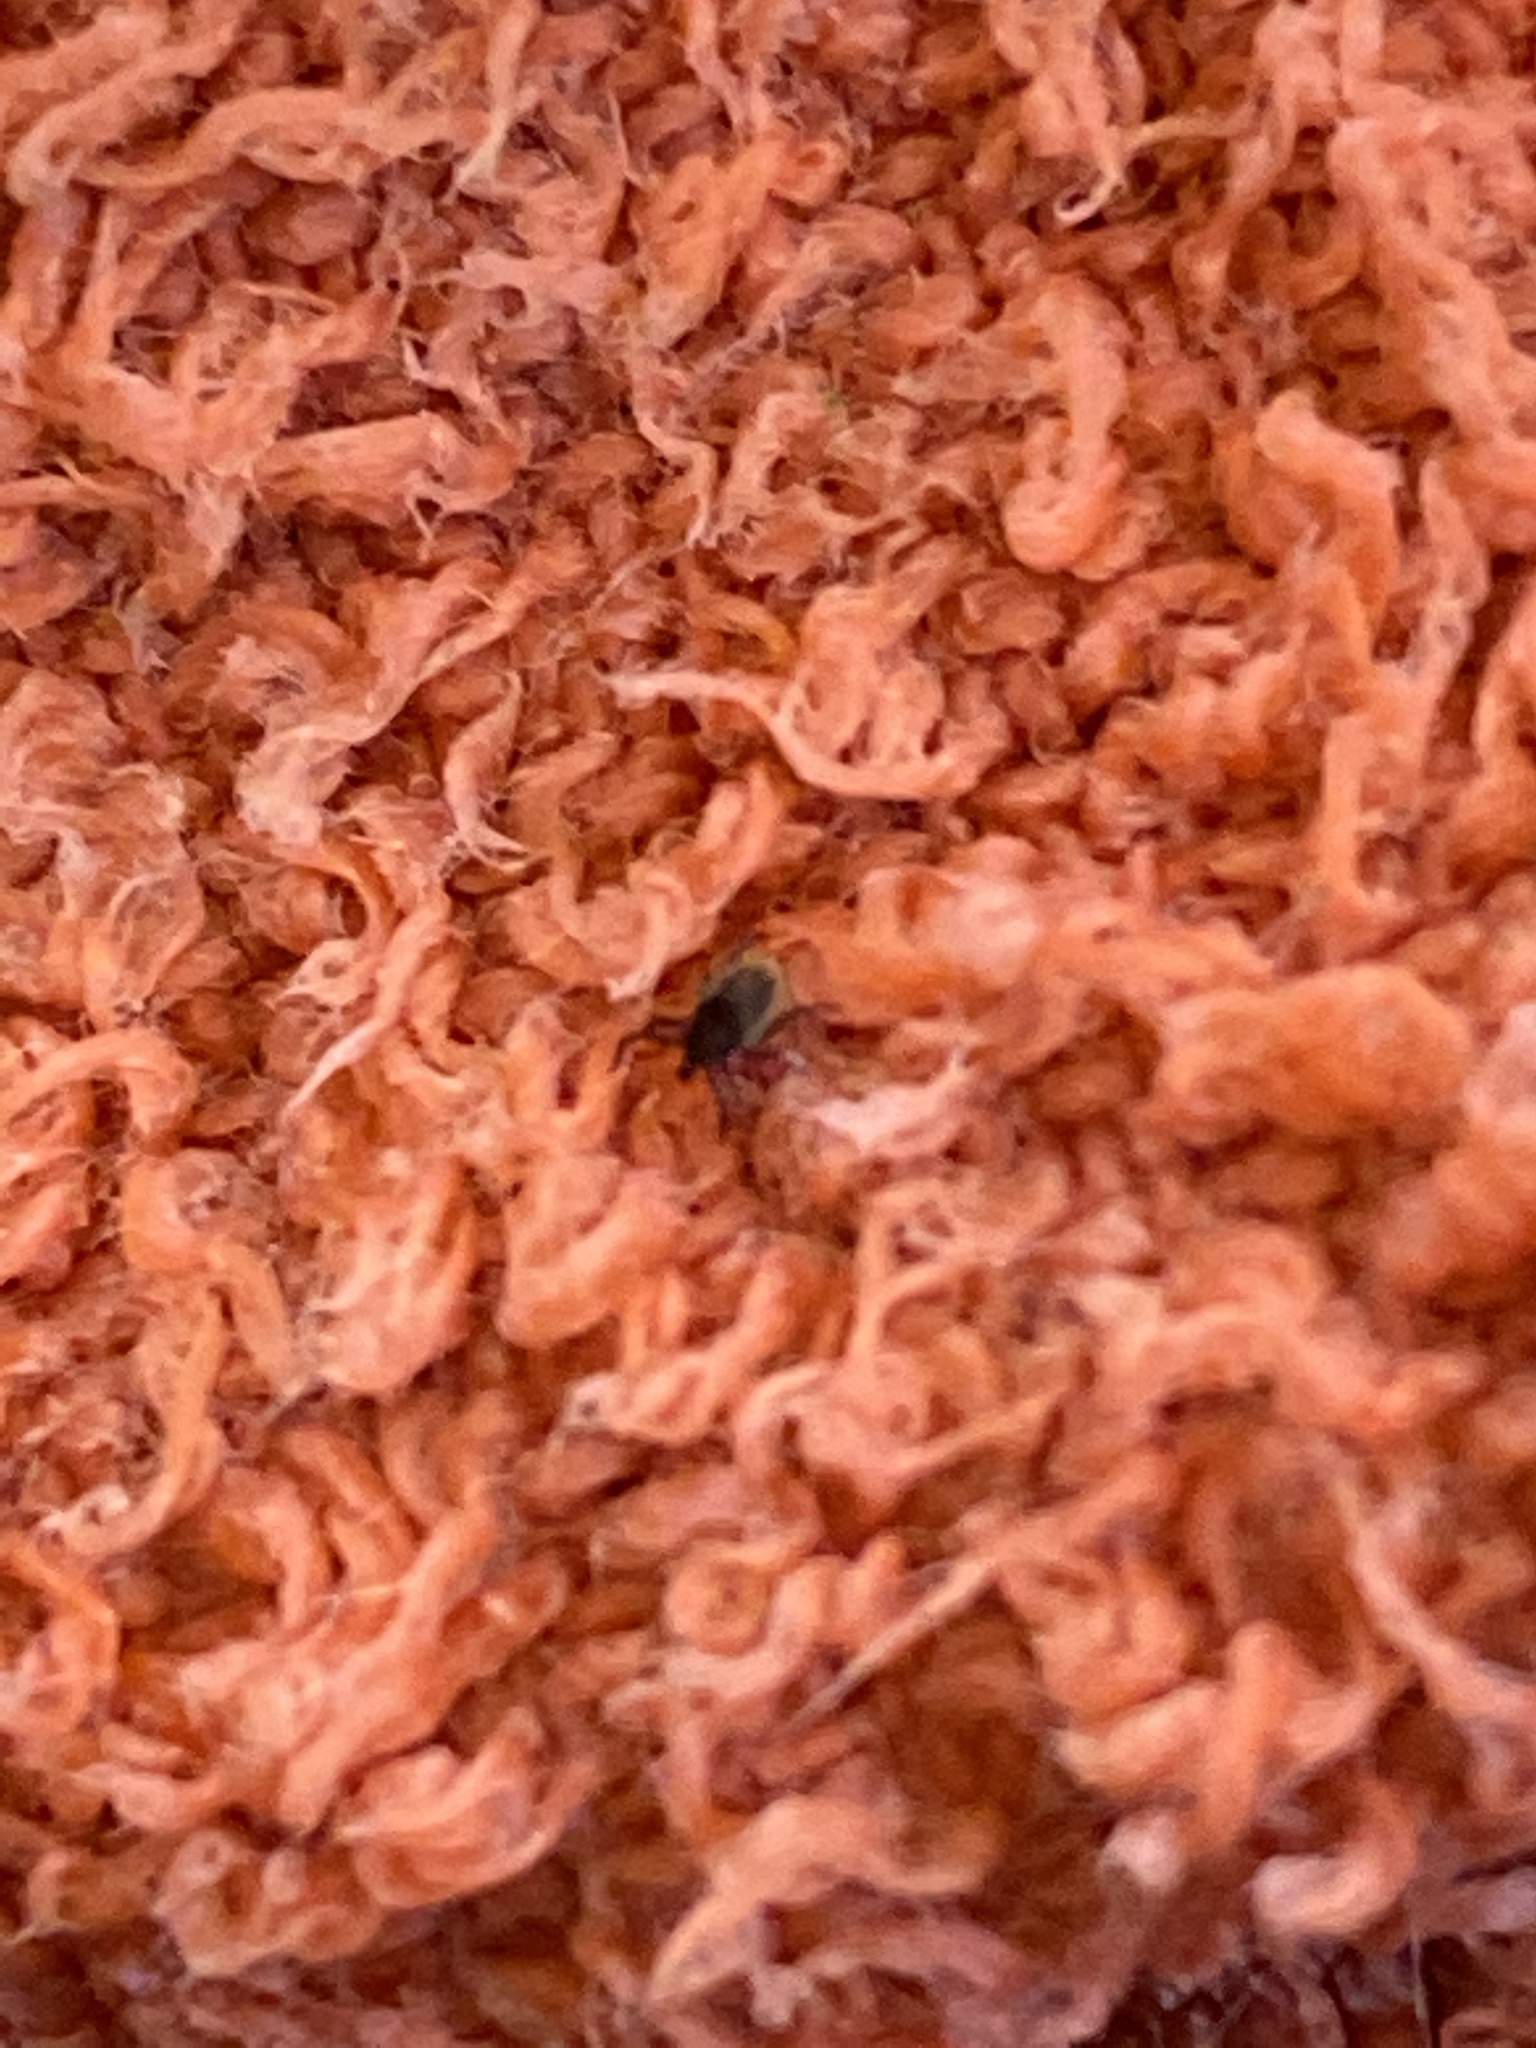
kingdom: Animalia
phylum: Arthropoda
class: Arachnida
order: Ixodida
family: Ixodidae
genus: Ixodes
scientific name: Ixodes ricinus
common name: Castor bean tick
